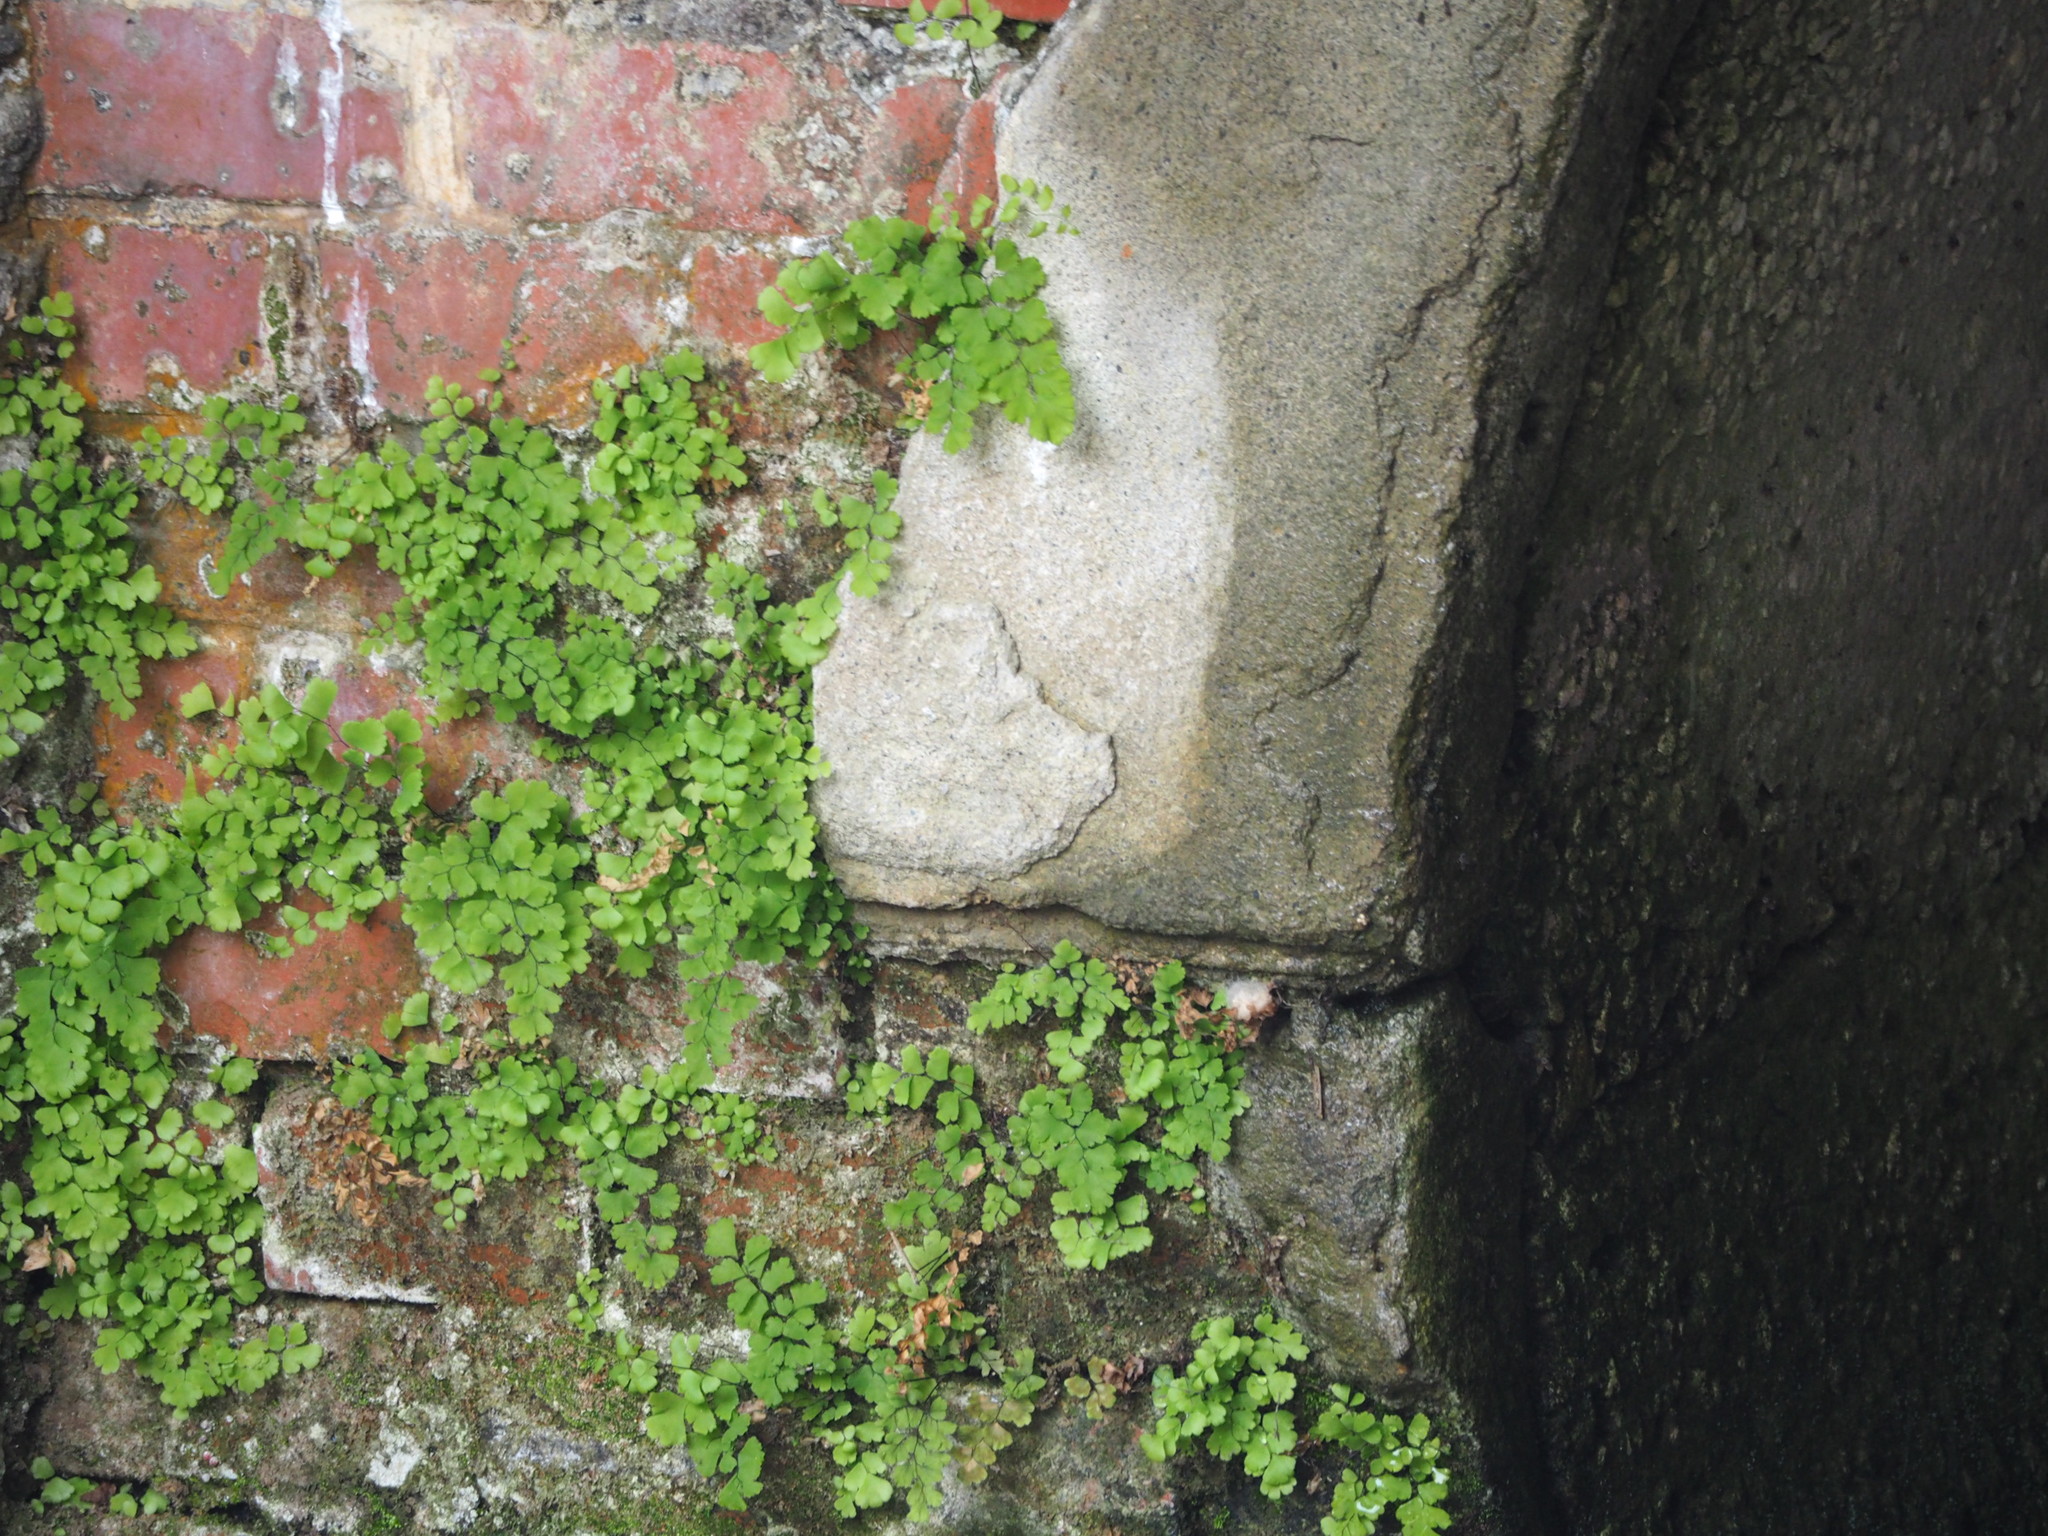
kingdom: Plantae
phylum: Tracheophyta
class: Polypodiopsida
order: Polypodiales
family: Pteridaceae
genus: Adiantum
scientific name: Adiantum capillus-veneris
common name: Maidenhair fern
